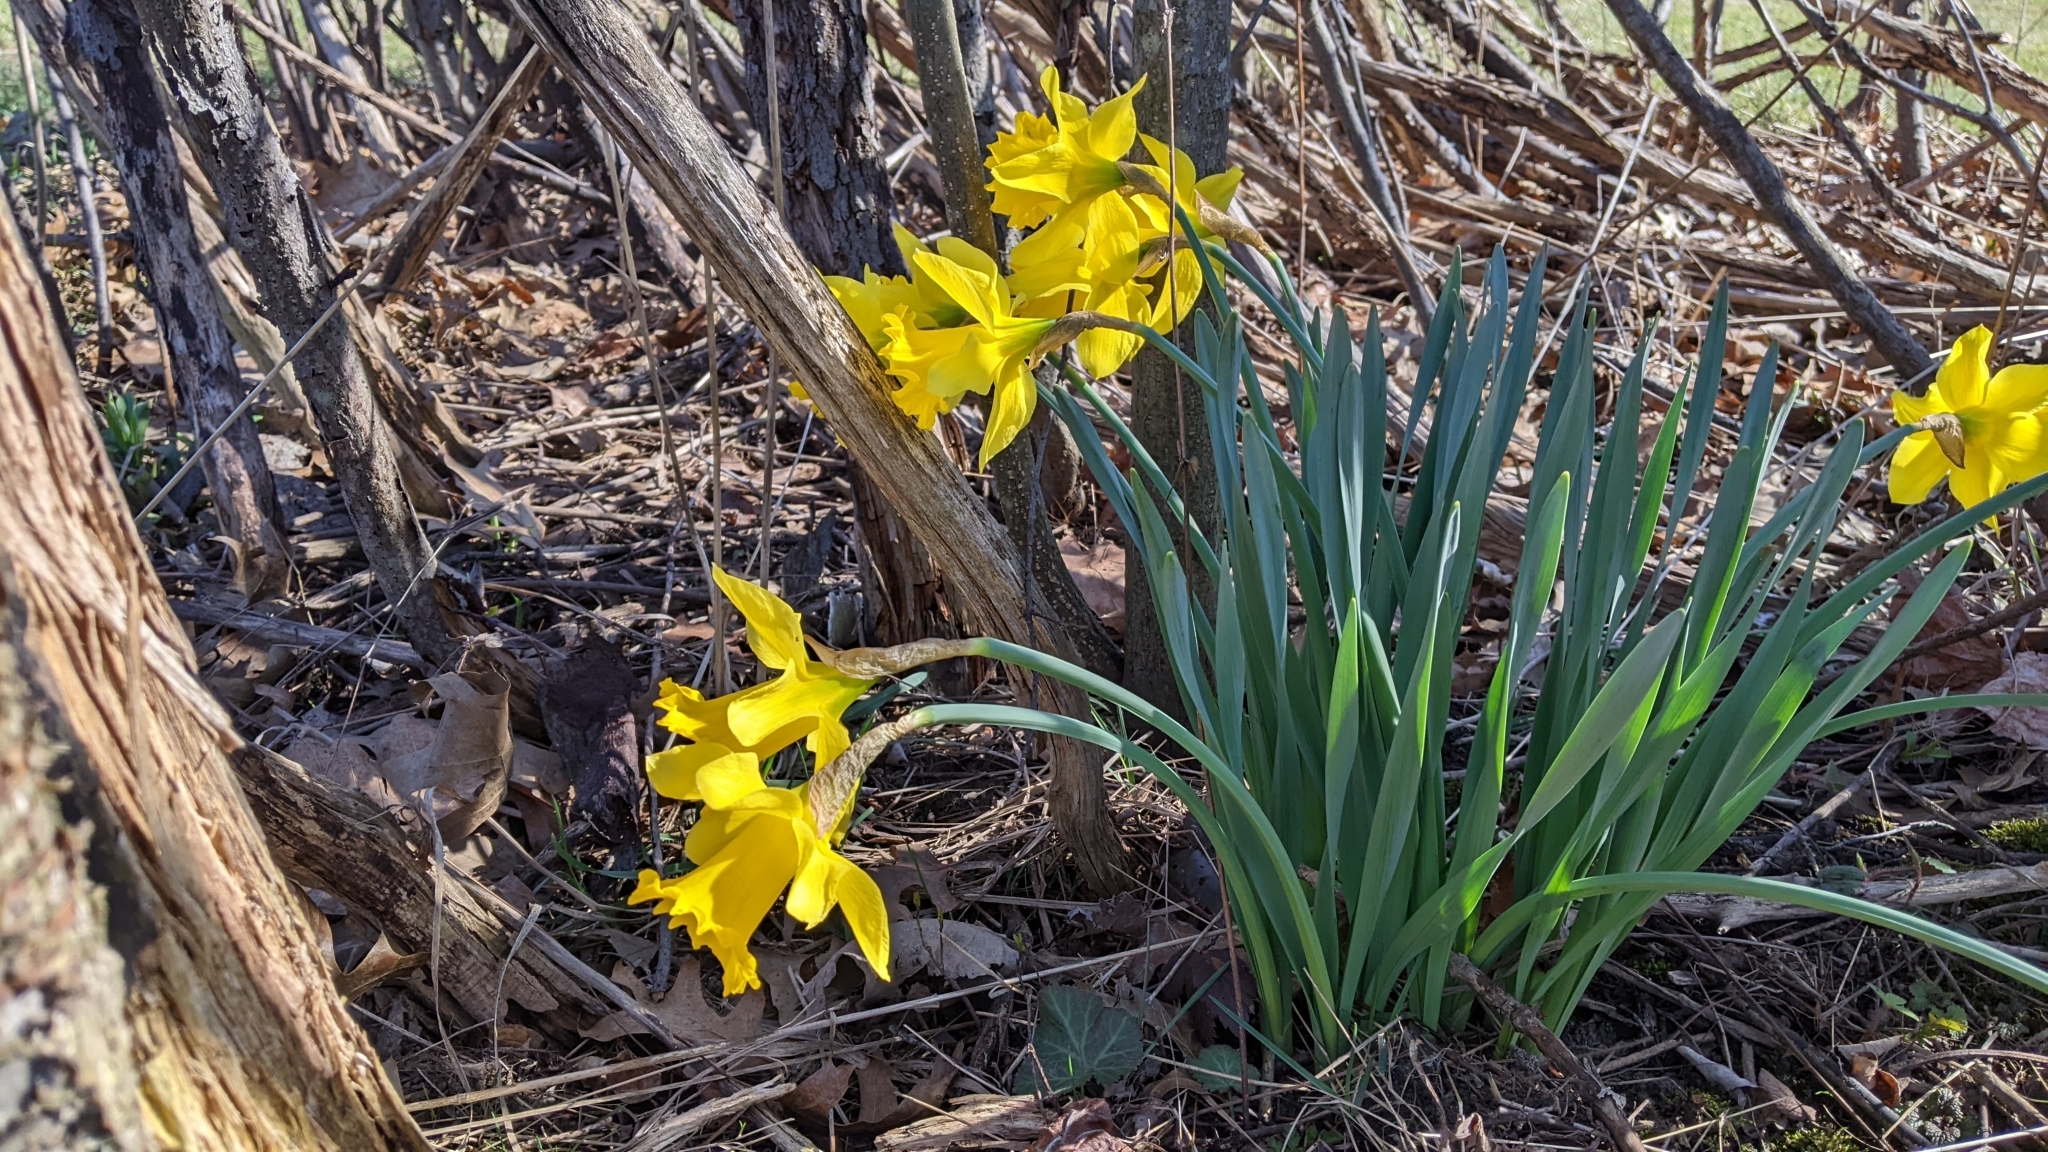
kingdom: Plantae
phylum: Tracheophyta
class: Liliopsida
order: Asparagales
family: Amaryllidaceae
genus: Narcissus
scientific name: Narcissus pseudonarcissus
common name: Daffodil
